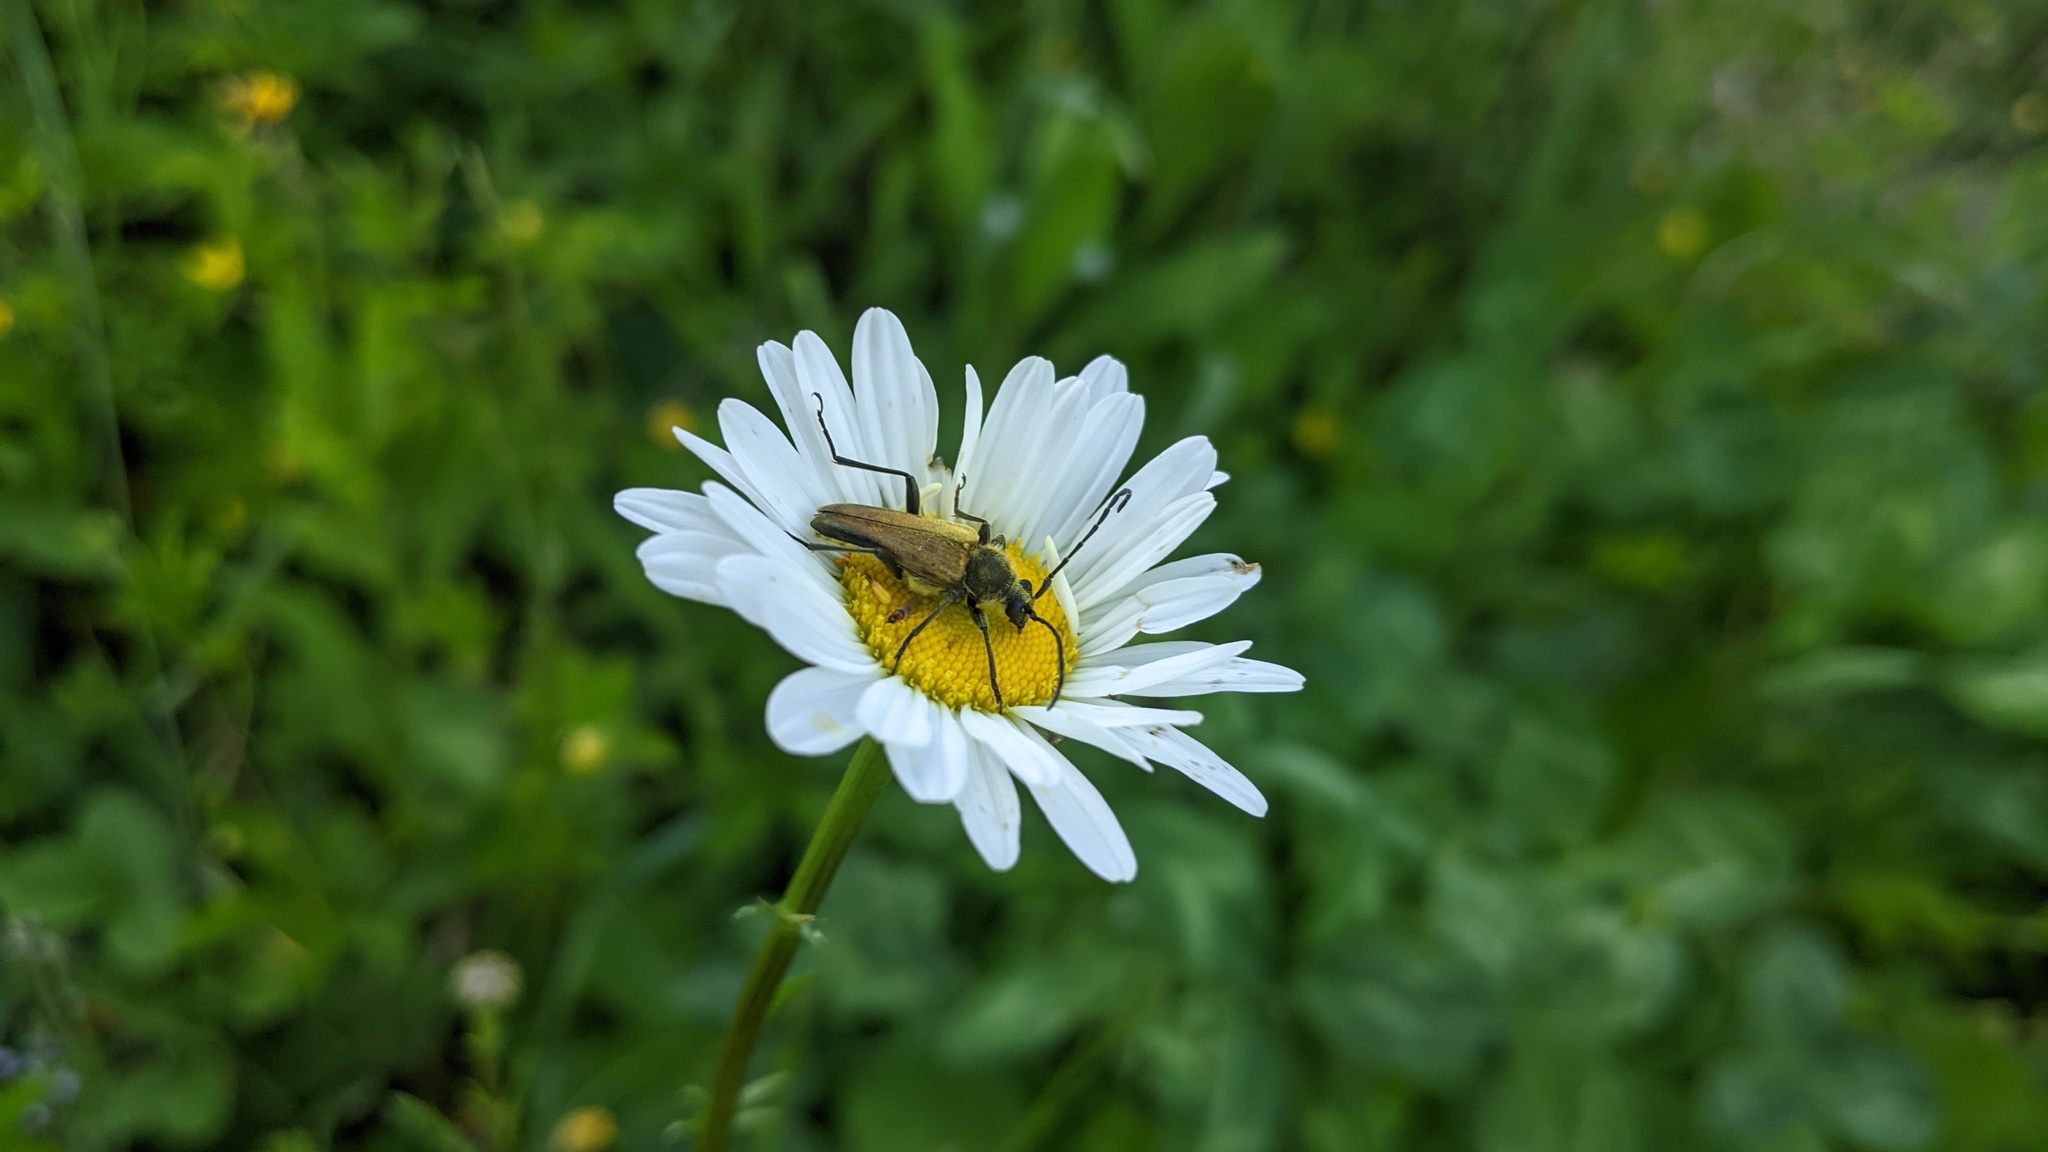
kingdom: Animalia
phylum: Arthropoda
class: Insecta
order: Coleoptera
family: Cerambycidae
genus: Cosmosalia
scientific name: Cosmosalia chrysocoma
